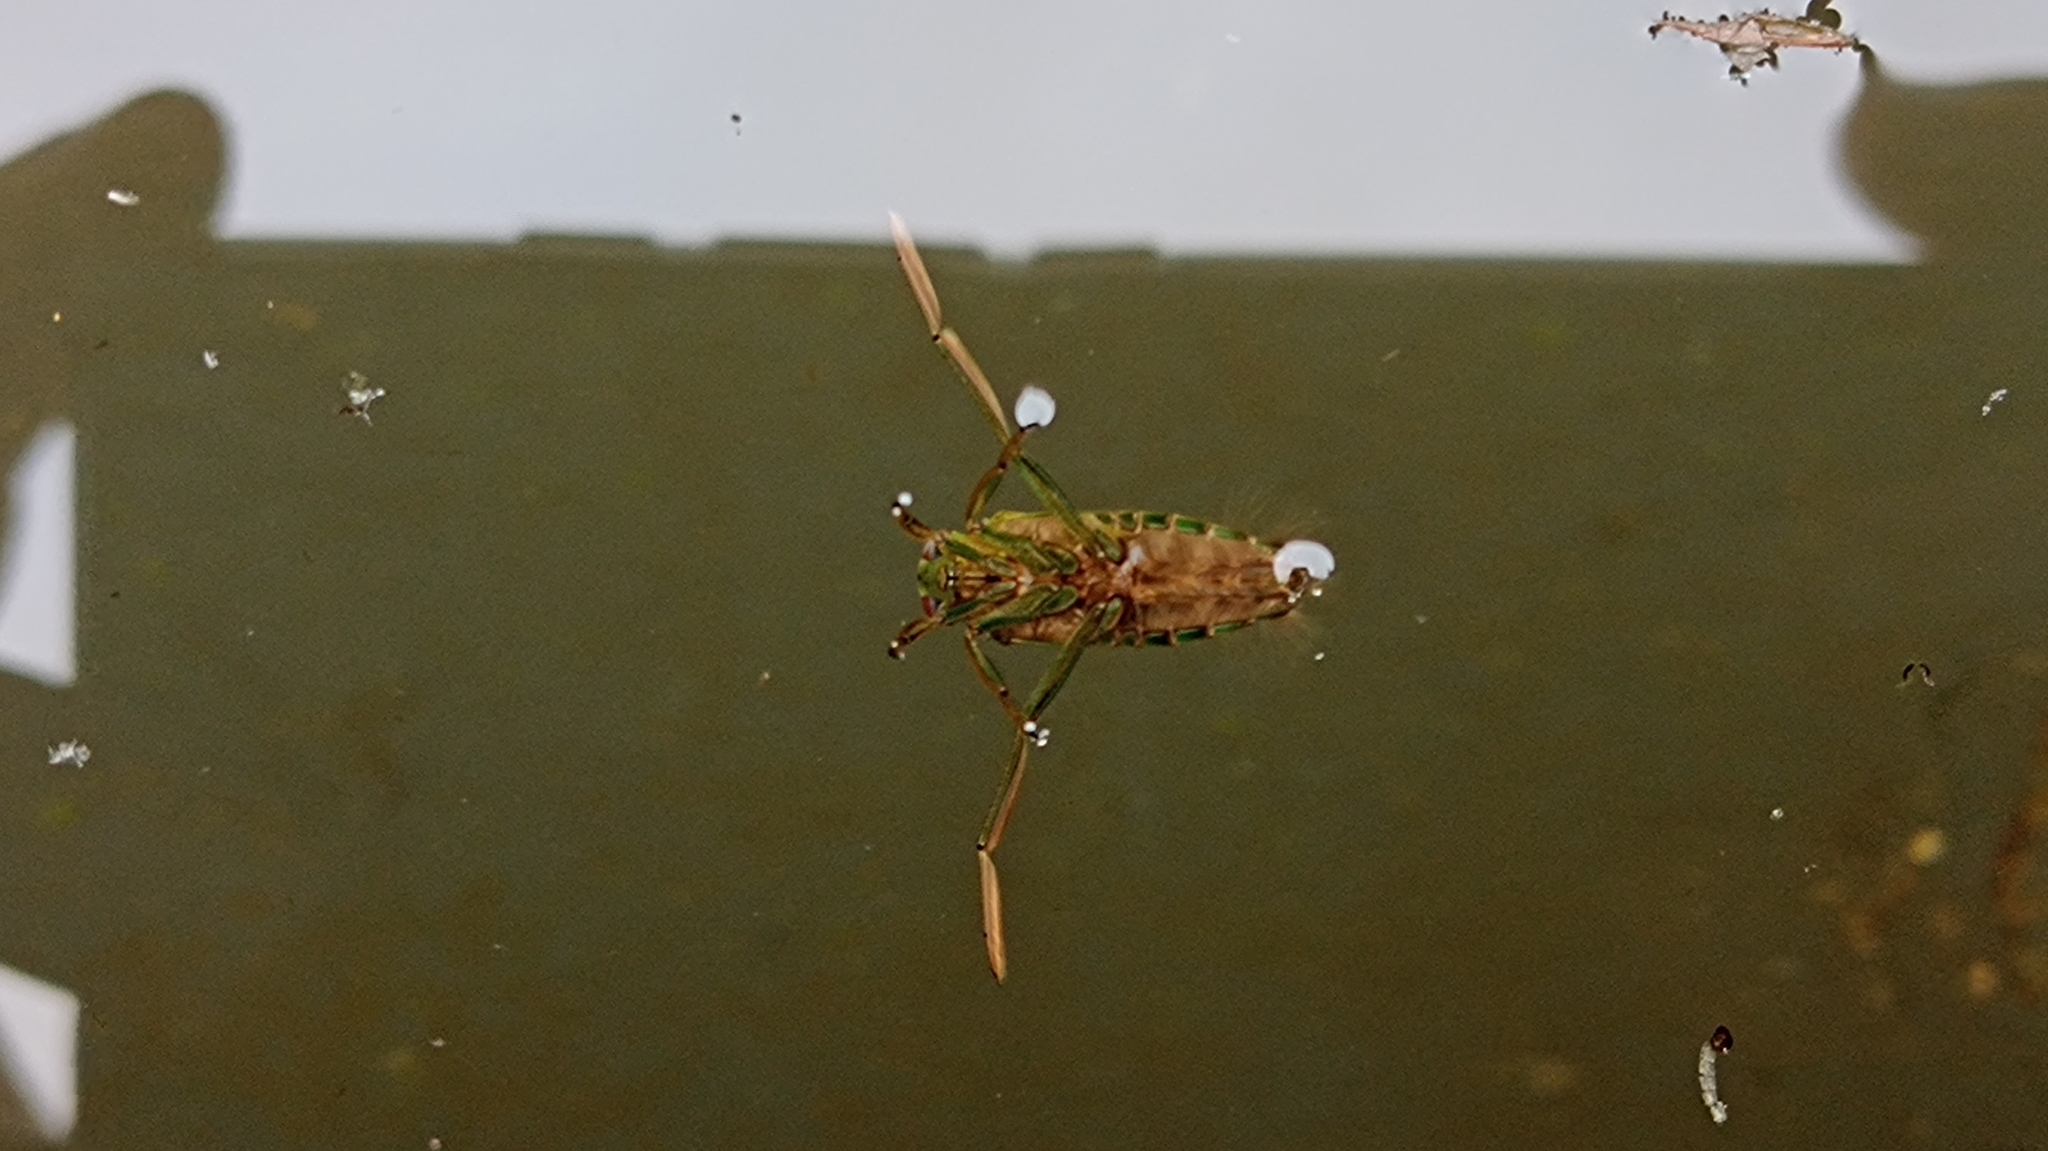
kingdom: Animalia
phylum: Arthropoda
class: Insecta
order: Hemiptera
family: Notonectidae
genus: Notonecta
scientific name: Notonecta glauca
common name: Common water-boatman
